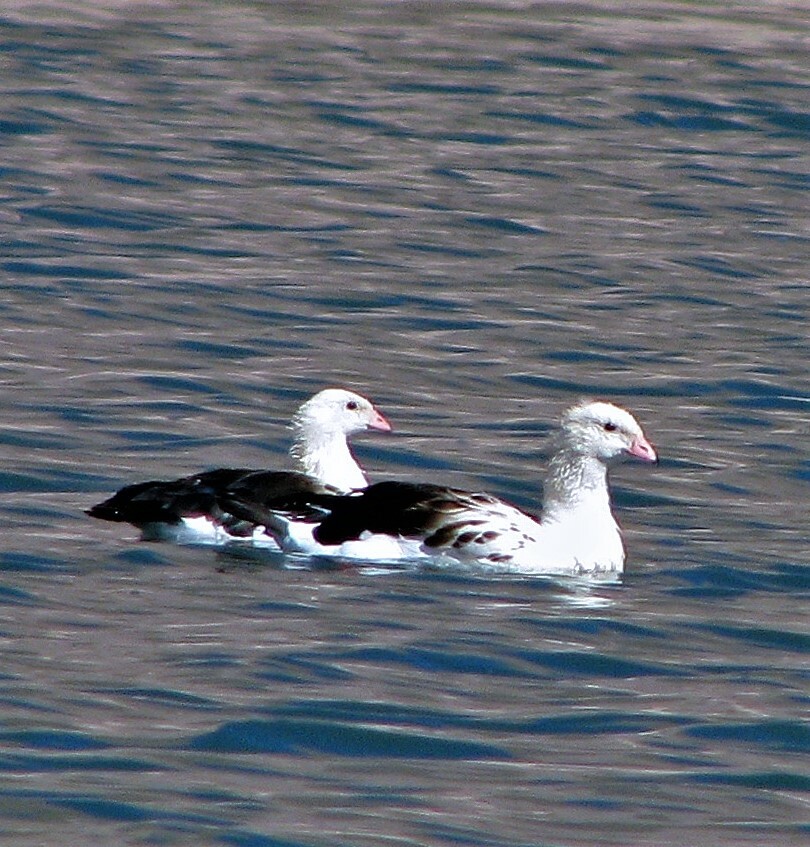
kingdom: Animalia
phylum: Chordata
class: Aves
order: Anseriformes
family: Anatidae
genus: Chloephaga
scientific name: Chloephaga melanoptera
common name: Andean goose
